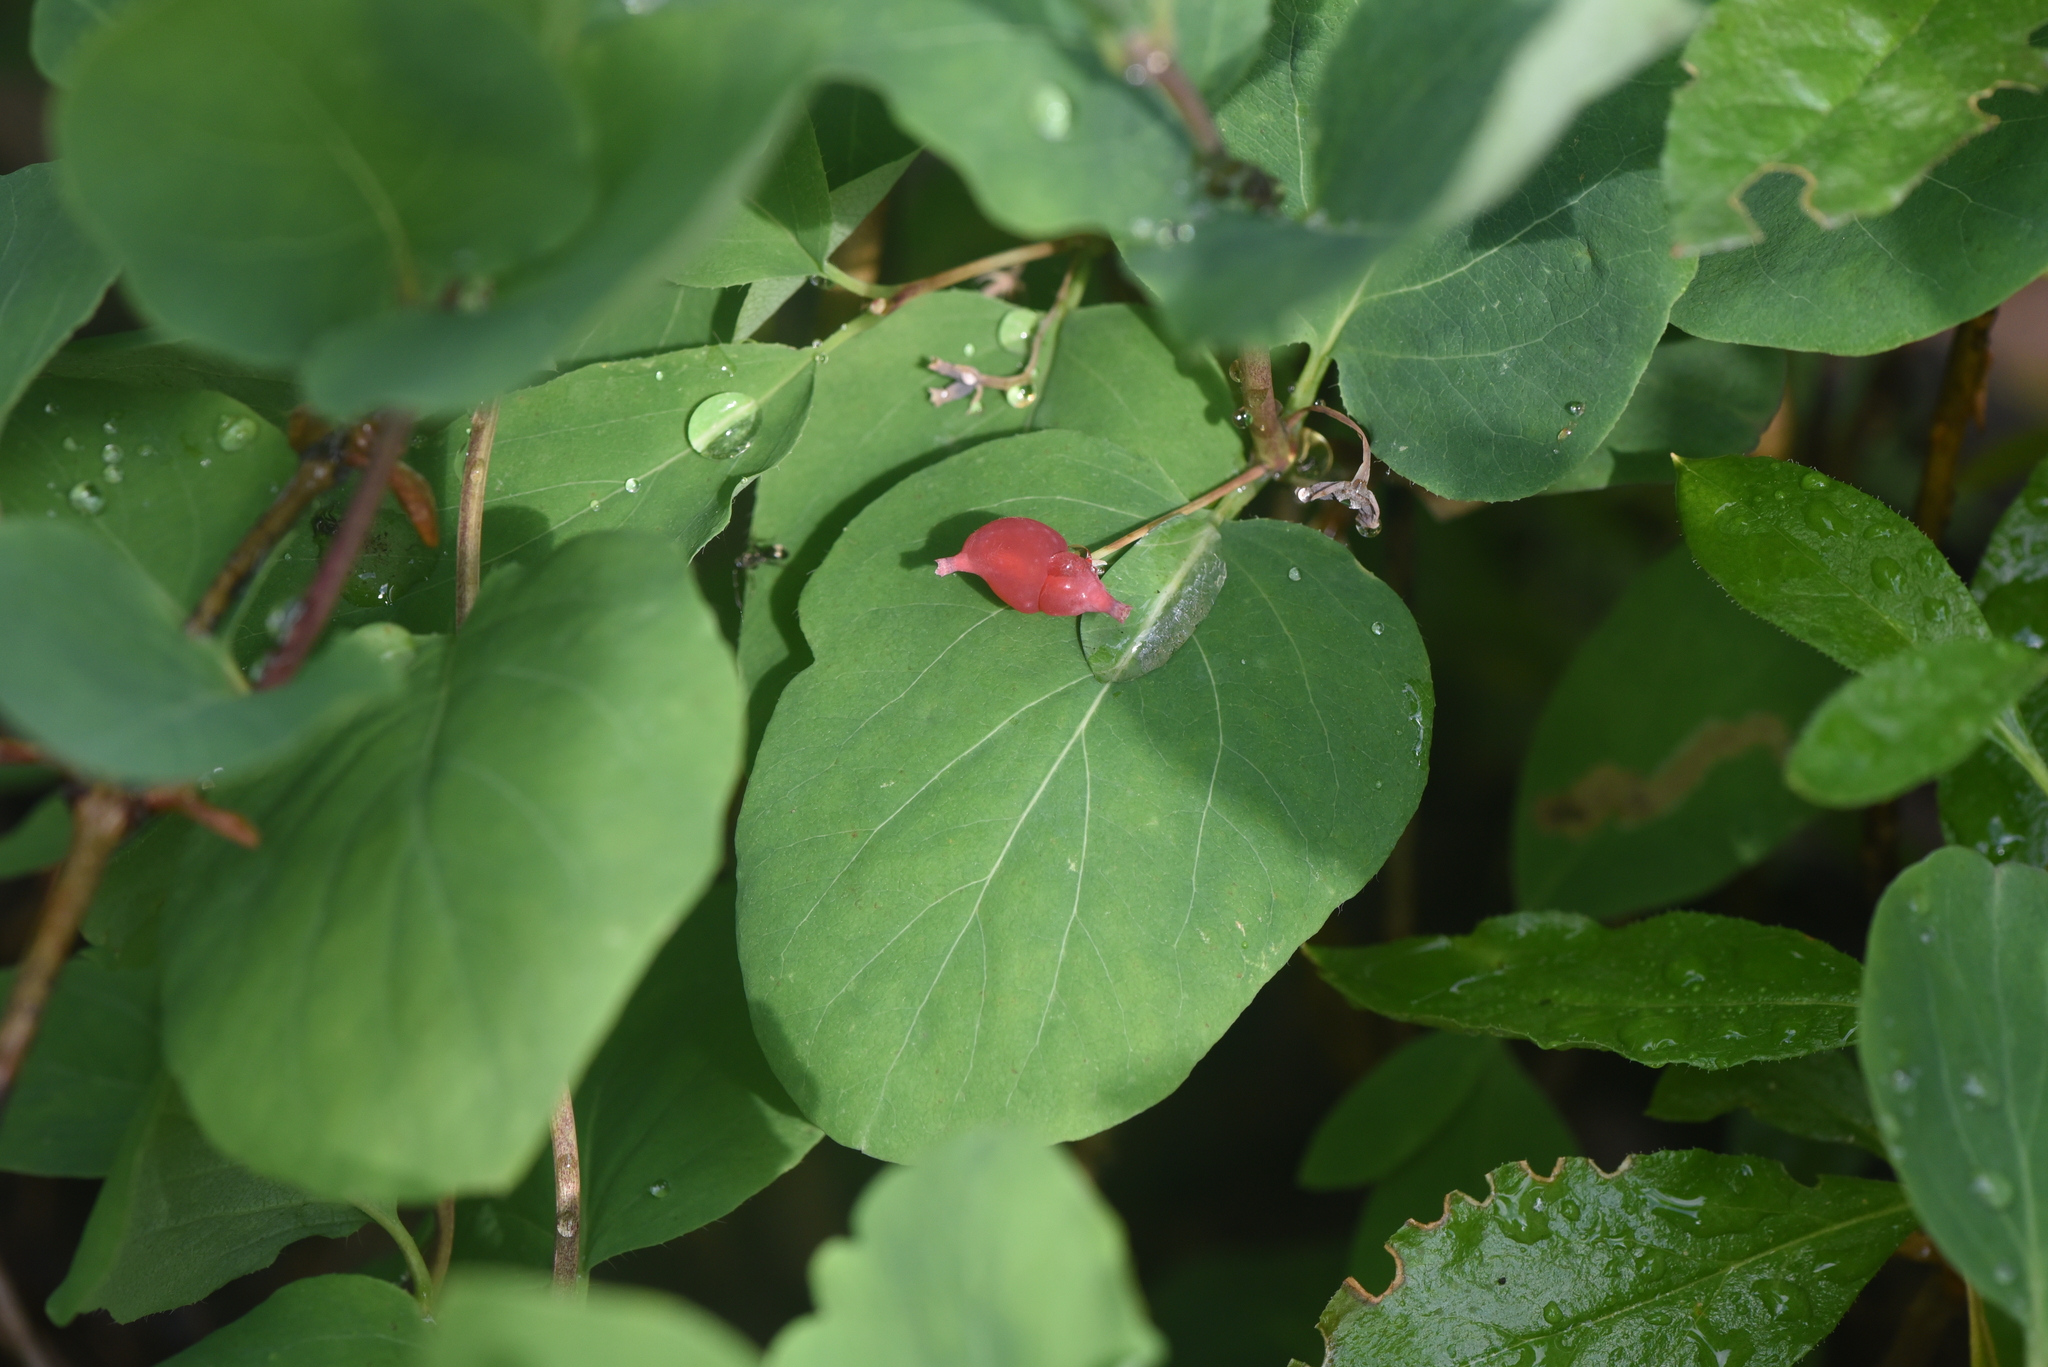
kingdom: Plantae
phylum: Tracheophyta
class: Magnoliopsida
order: Dipsacales
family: Caprifoliaceae
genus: Lonicera
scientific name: Lonicera utahensis
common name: Utah honeysuckle
